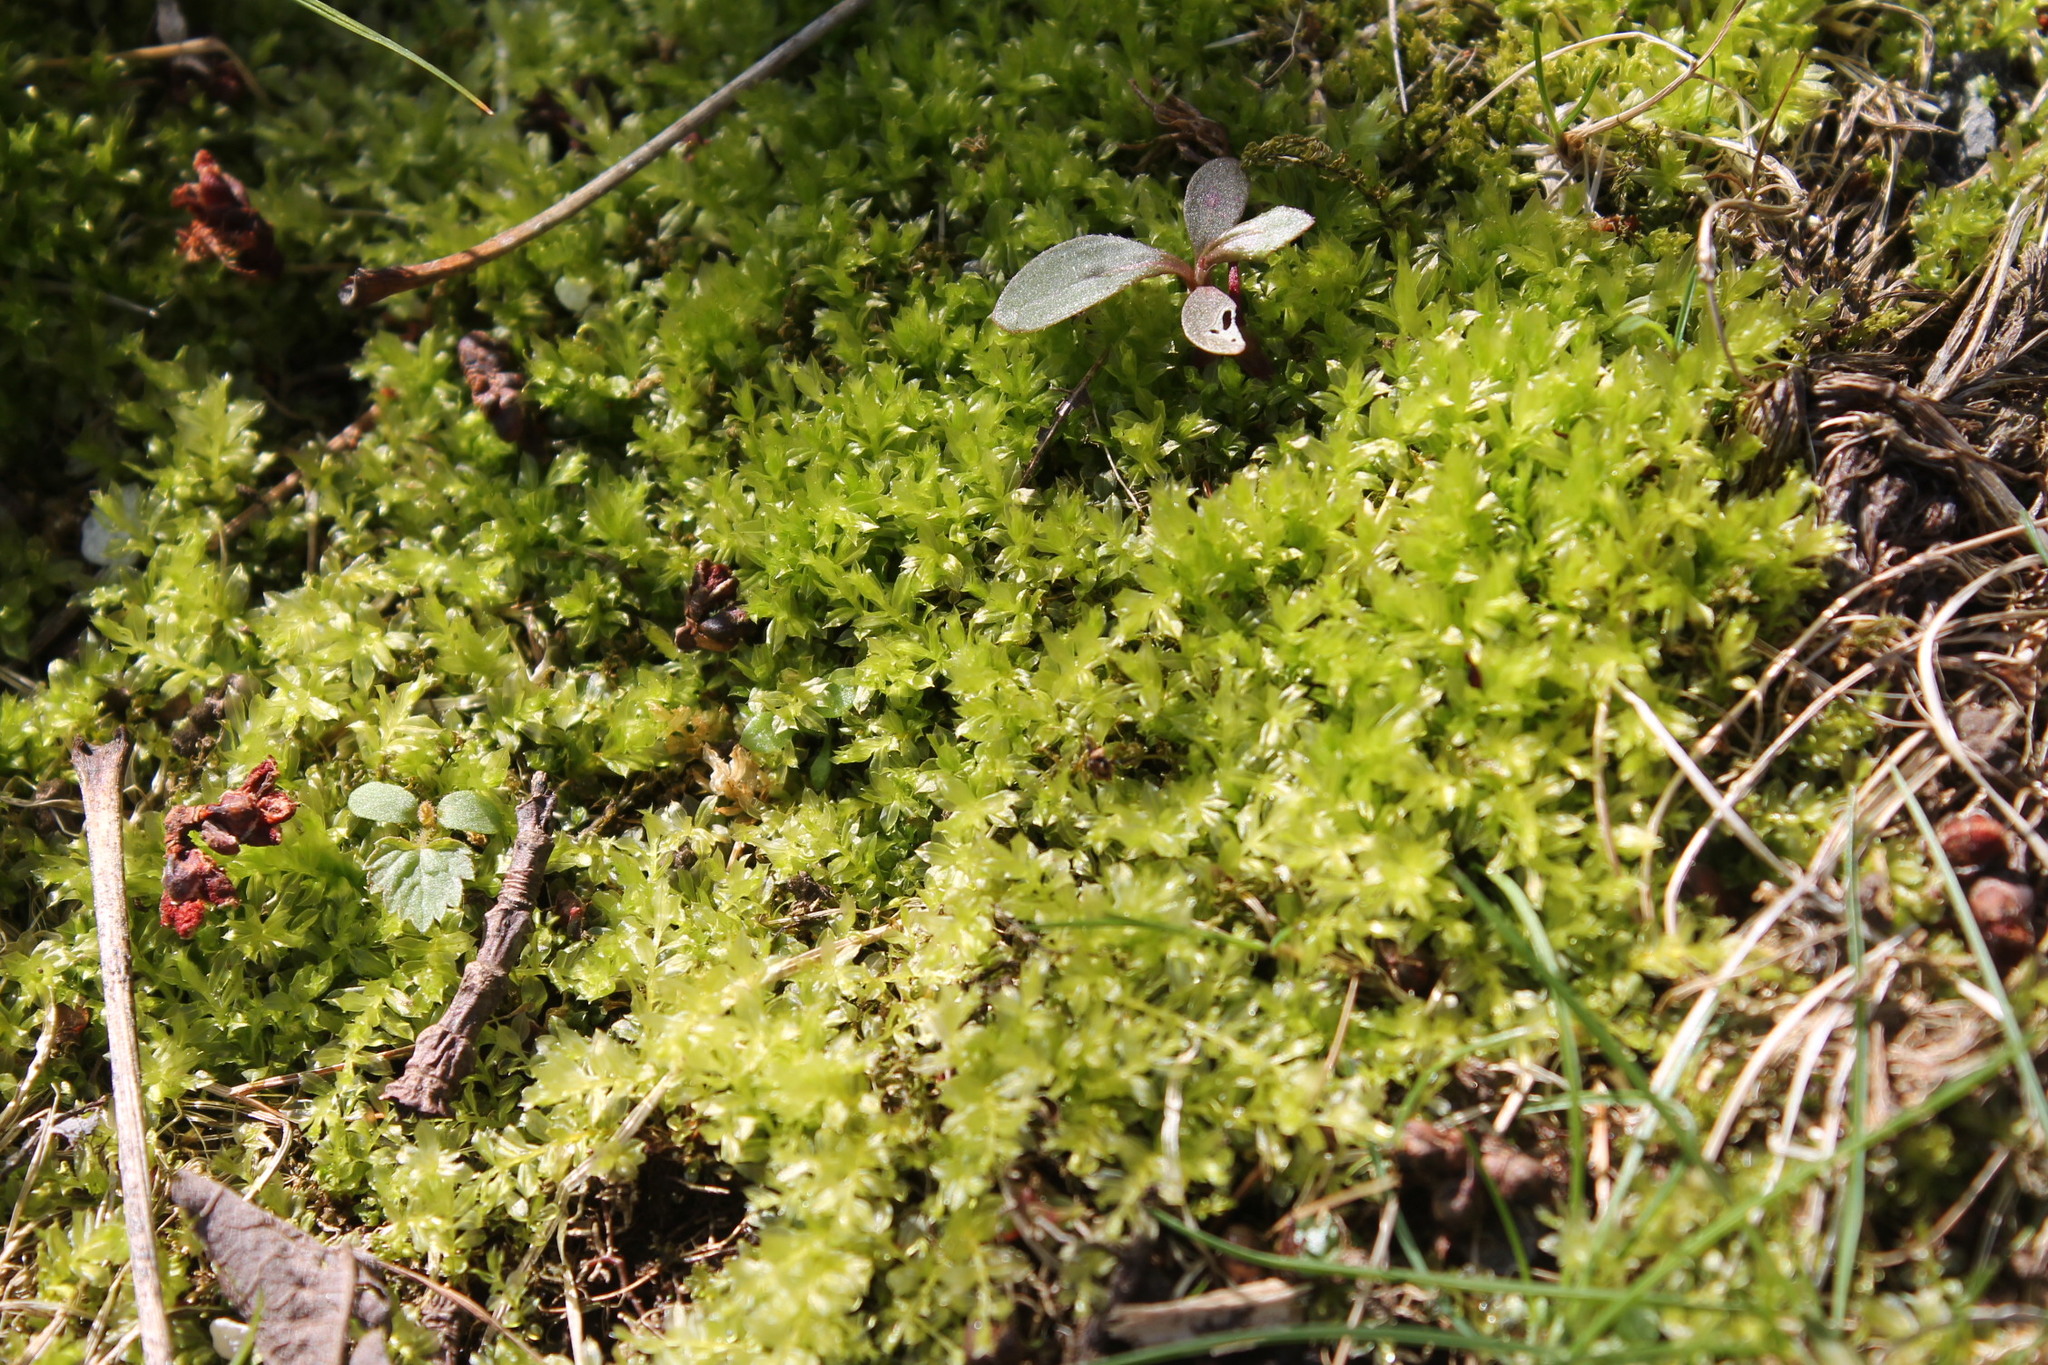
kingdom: Plantae
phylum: Bryophyta
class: Bryopsida
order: Bryales
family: Mniaceae
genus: Plagiomnium
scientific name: Plagiomnium cuspidatum
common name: Woodsy leafy moss
